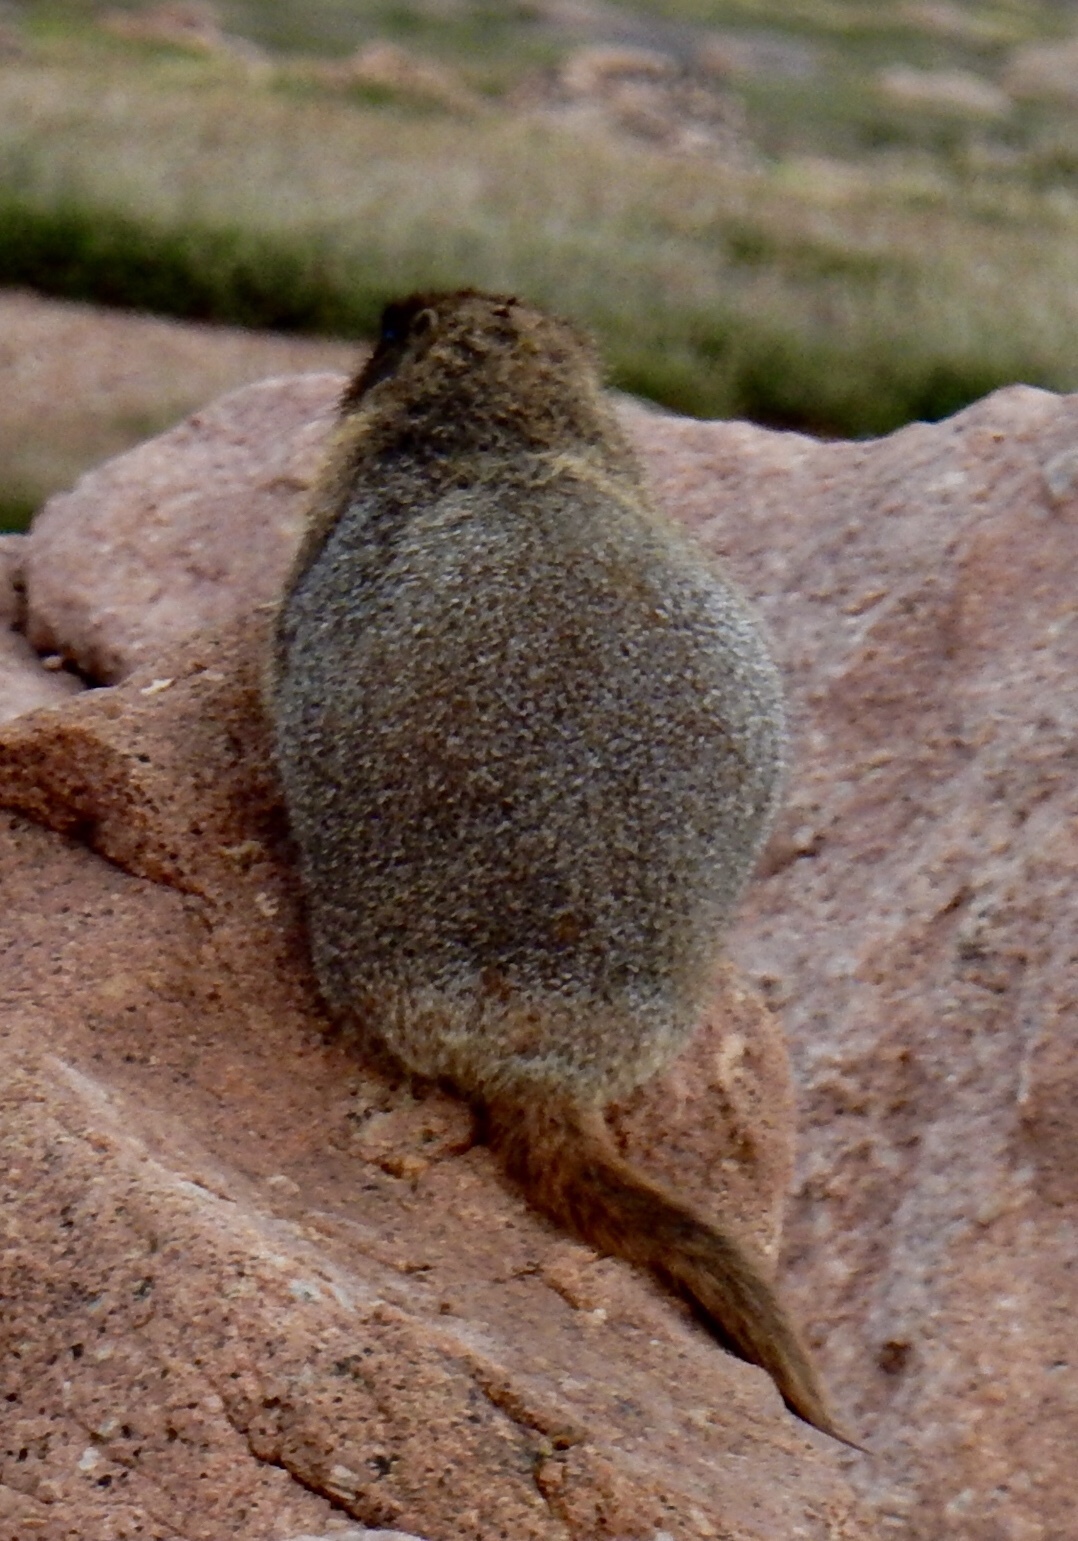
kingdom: Animalia
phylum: Chordata
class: Mammalia
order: Rodentia
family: Sciuridae
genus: Marmota
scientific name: Marmota flaviventris
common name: Yellow-bellied marmot
